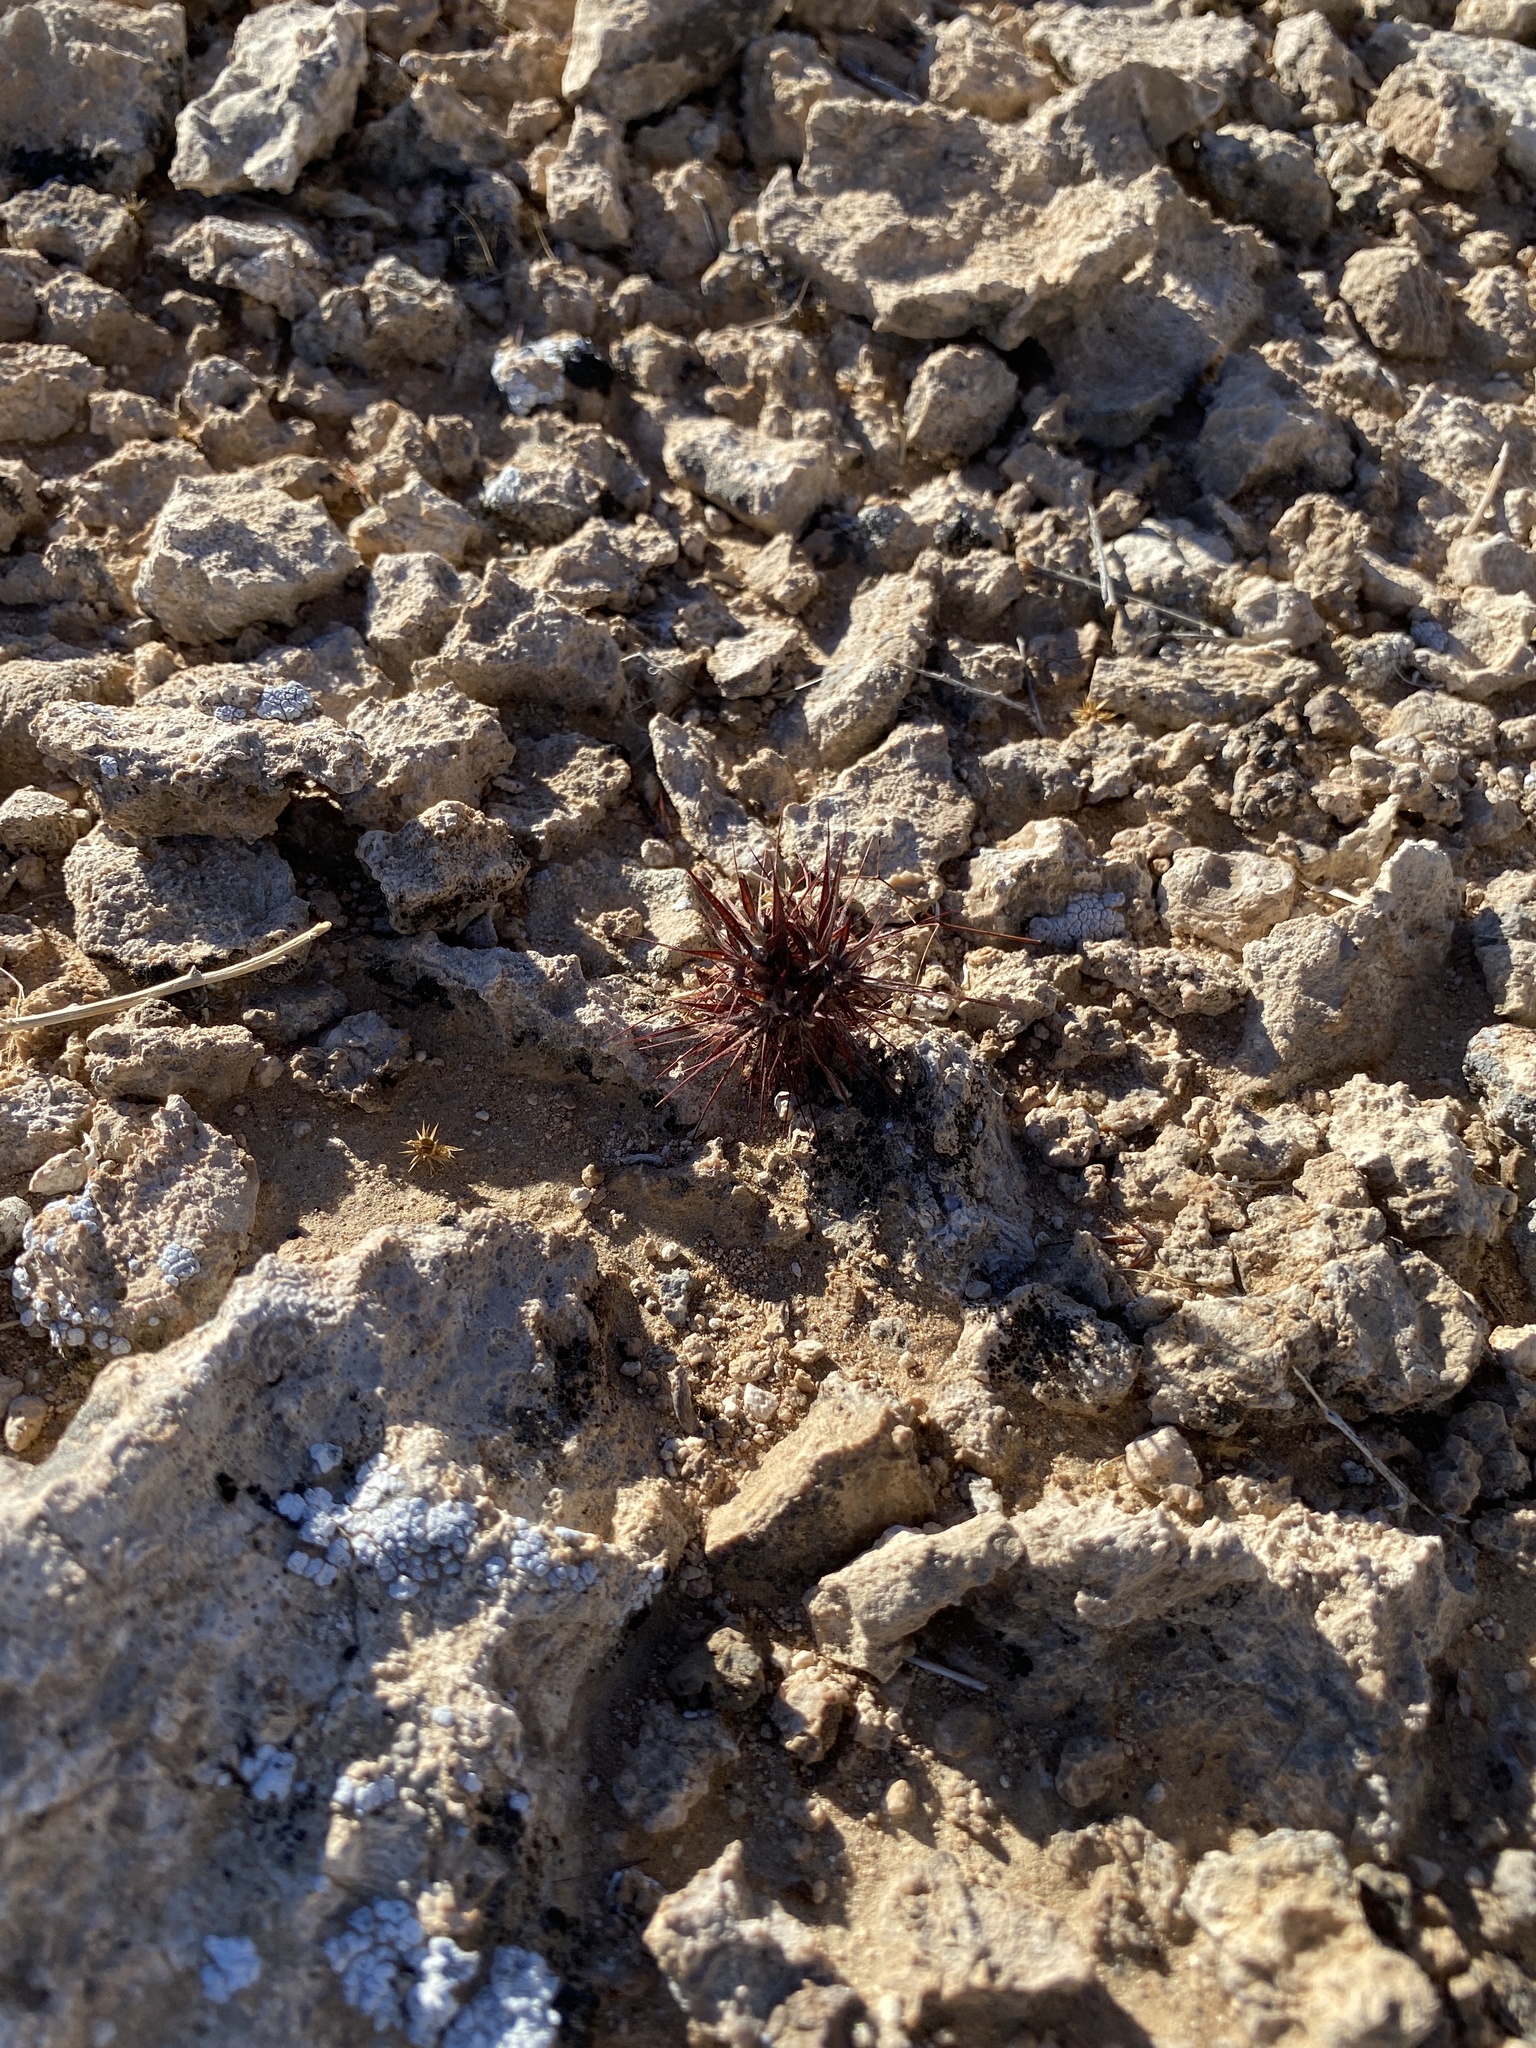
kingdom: Plantae
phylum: Tracheophyta
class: Magnoliopsida
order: Caryophyllales
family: Polygonaceae
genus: Chorizanthe
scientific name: Chorizanthe rigida
